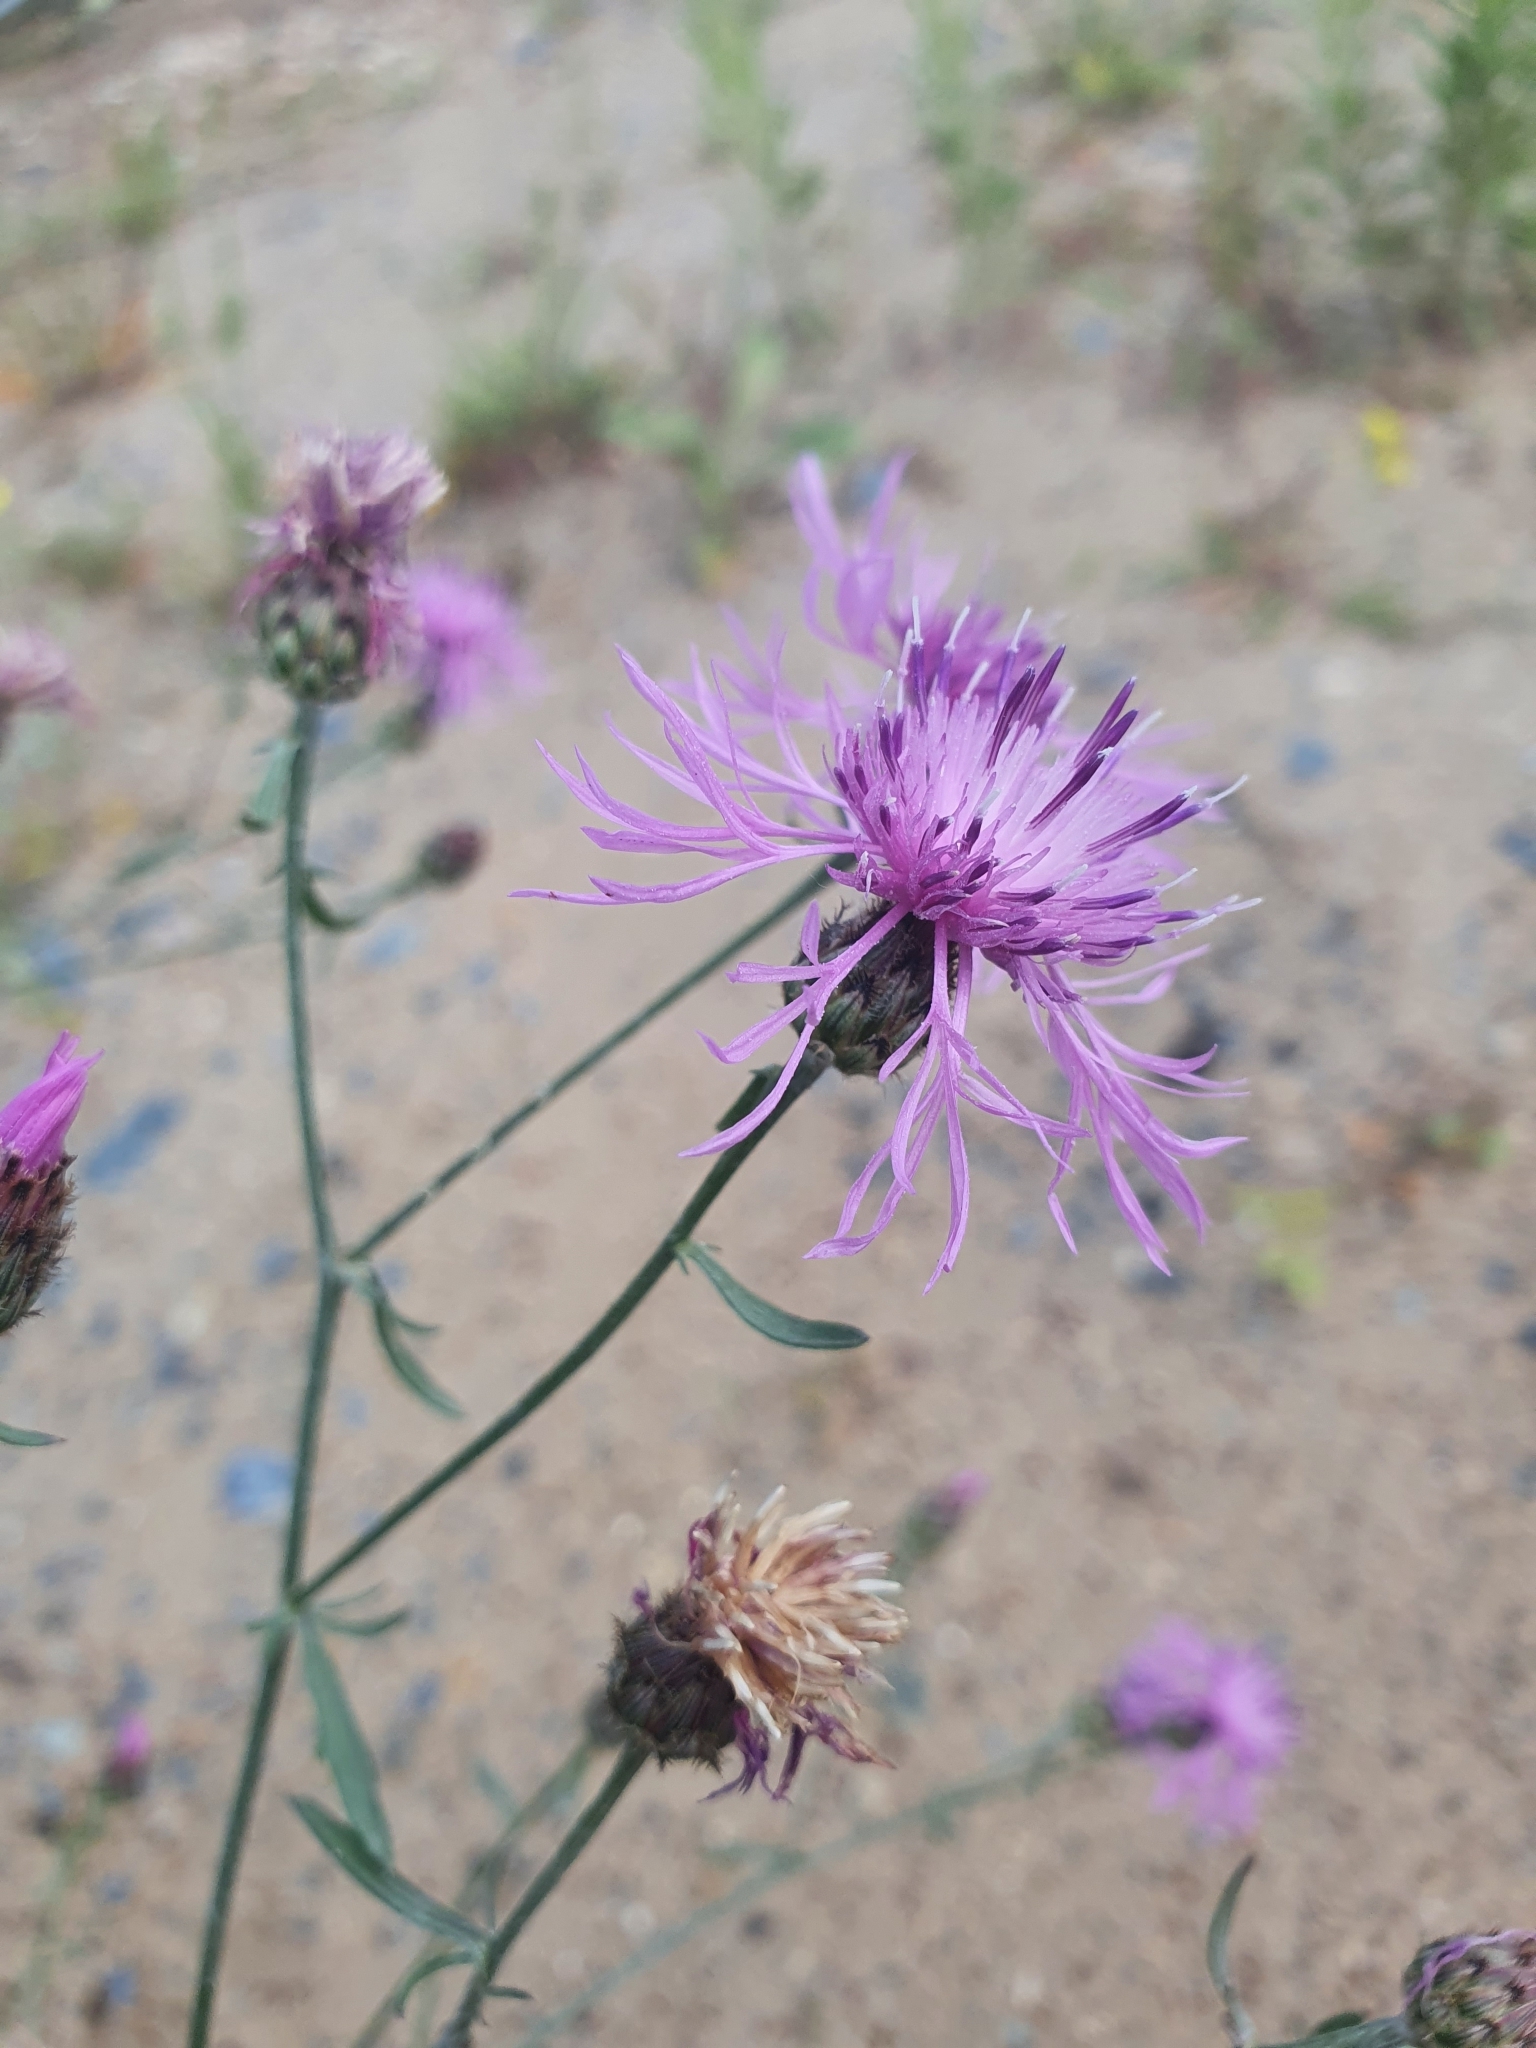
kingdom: Plantae
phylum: Tracheophyta
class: Magnoliopsida
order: Asterales
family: Asteraceae
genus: Centaurea
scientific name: Centaurea stoebe
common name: Spotted knapweed
